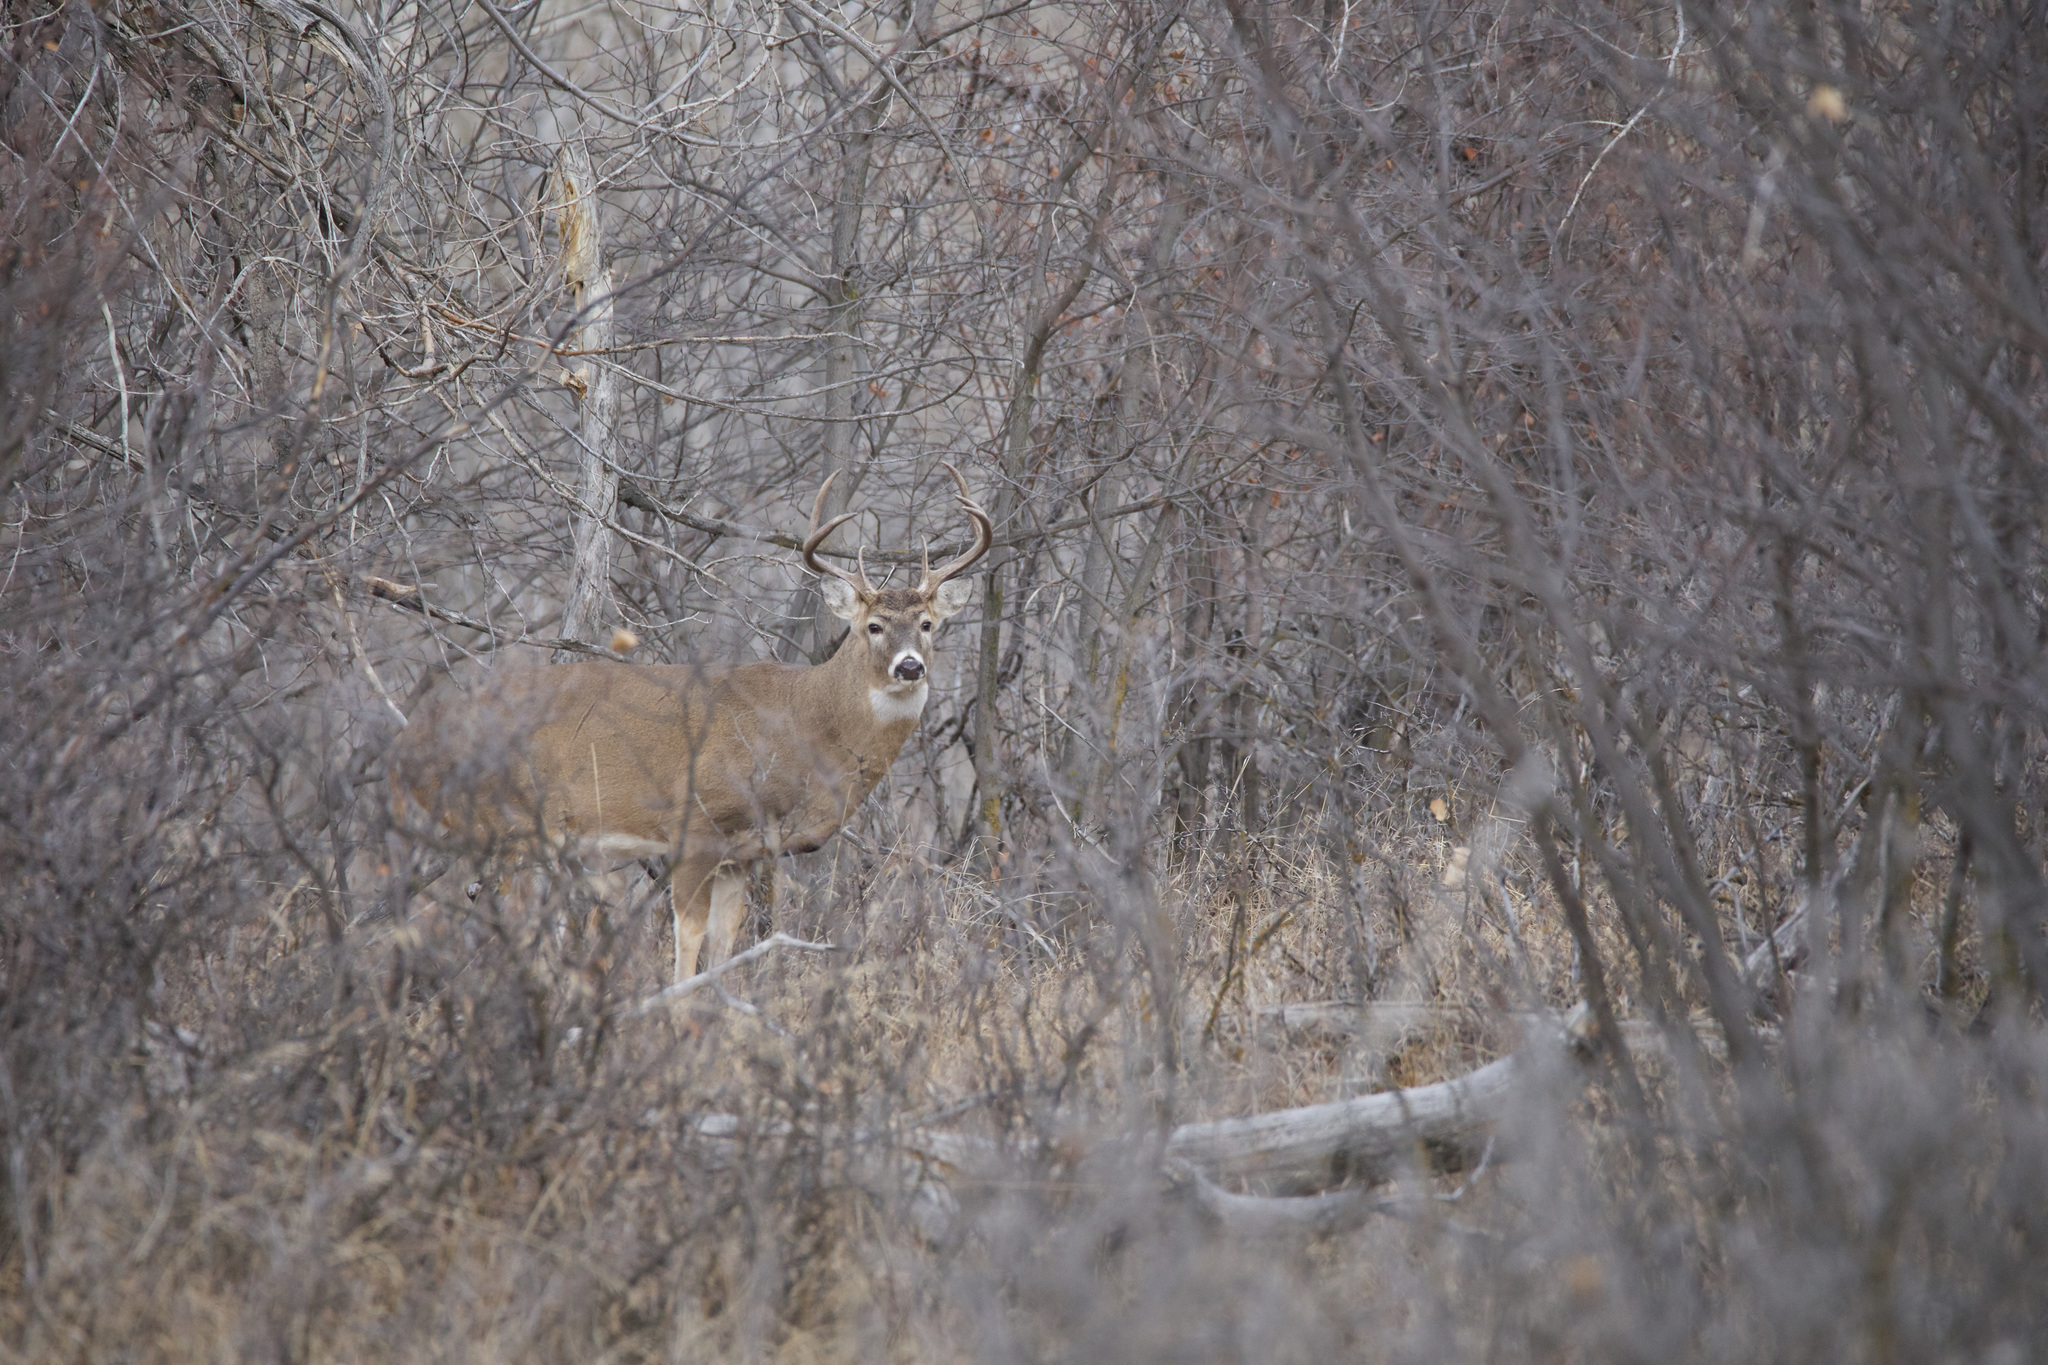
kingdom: Animalia
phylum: Chordata
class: Mammalia
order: Artiodactyla
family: Cervidae
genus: Odocoileus
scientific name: Odocoileus virginianus
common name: White-tailed deer
